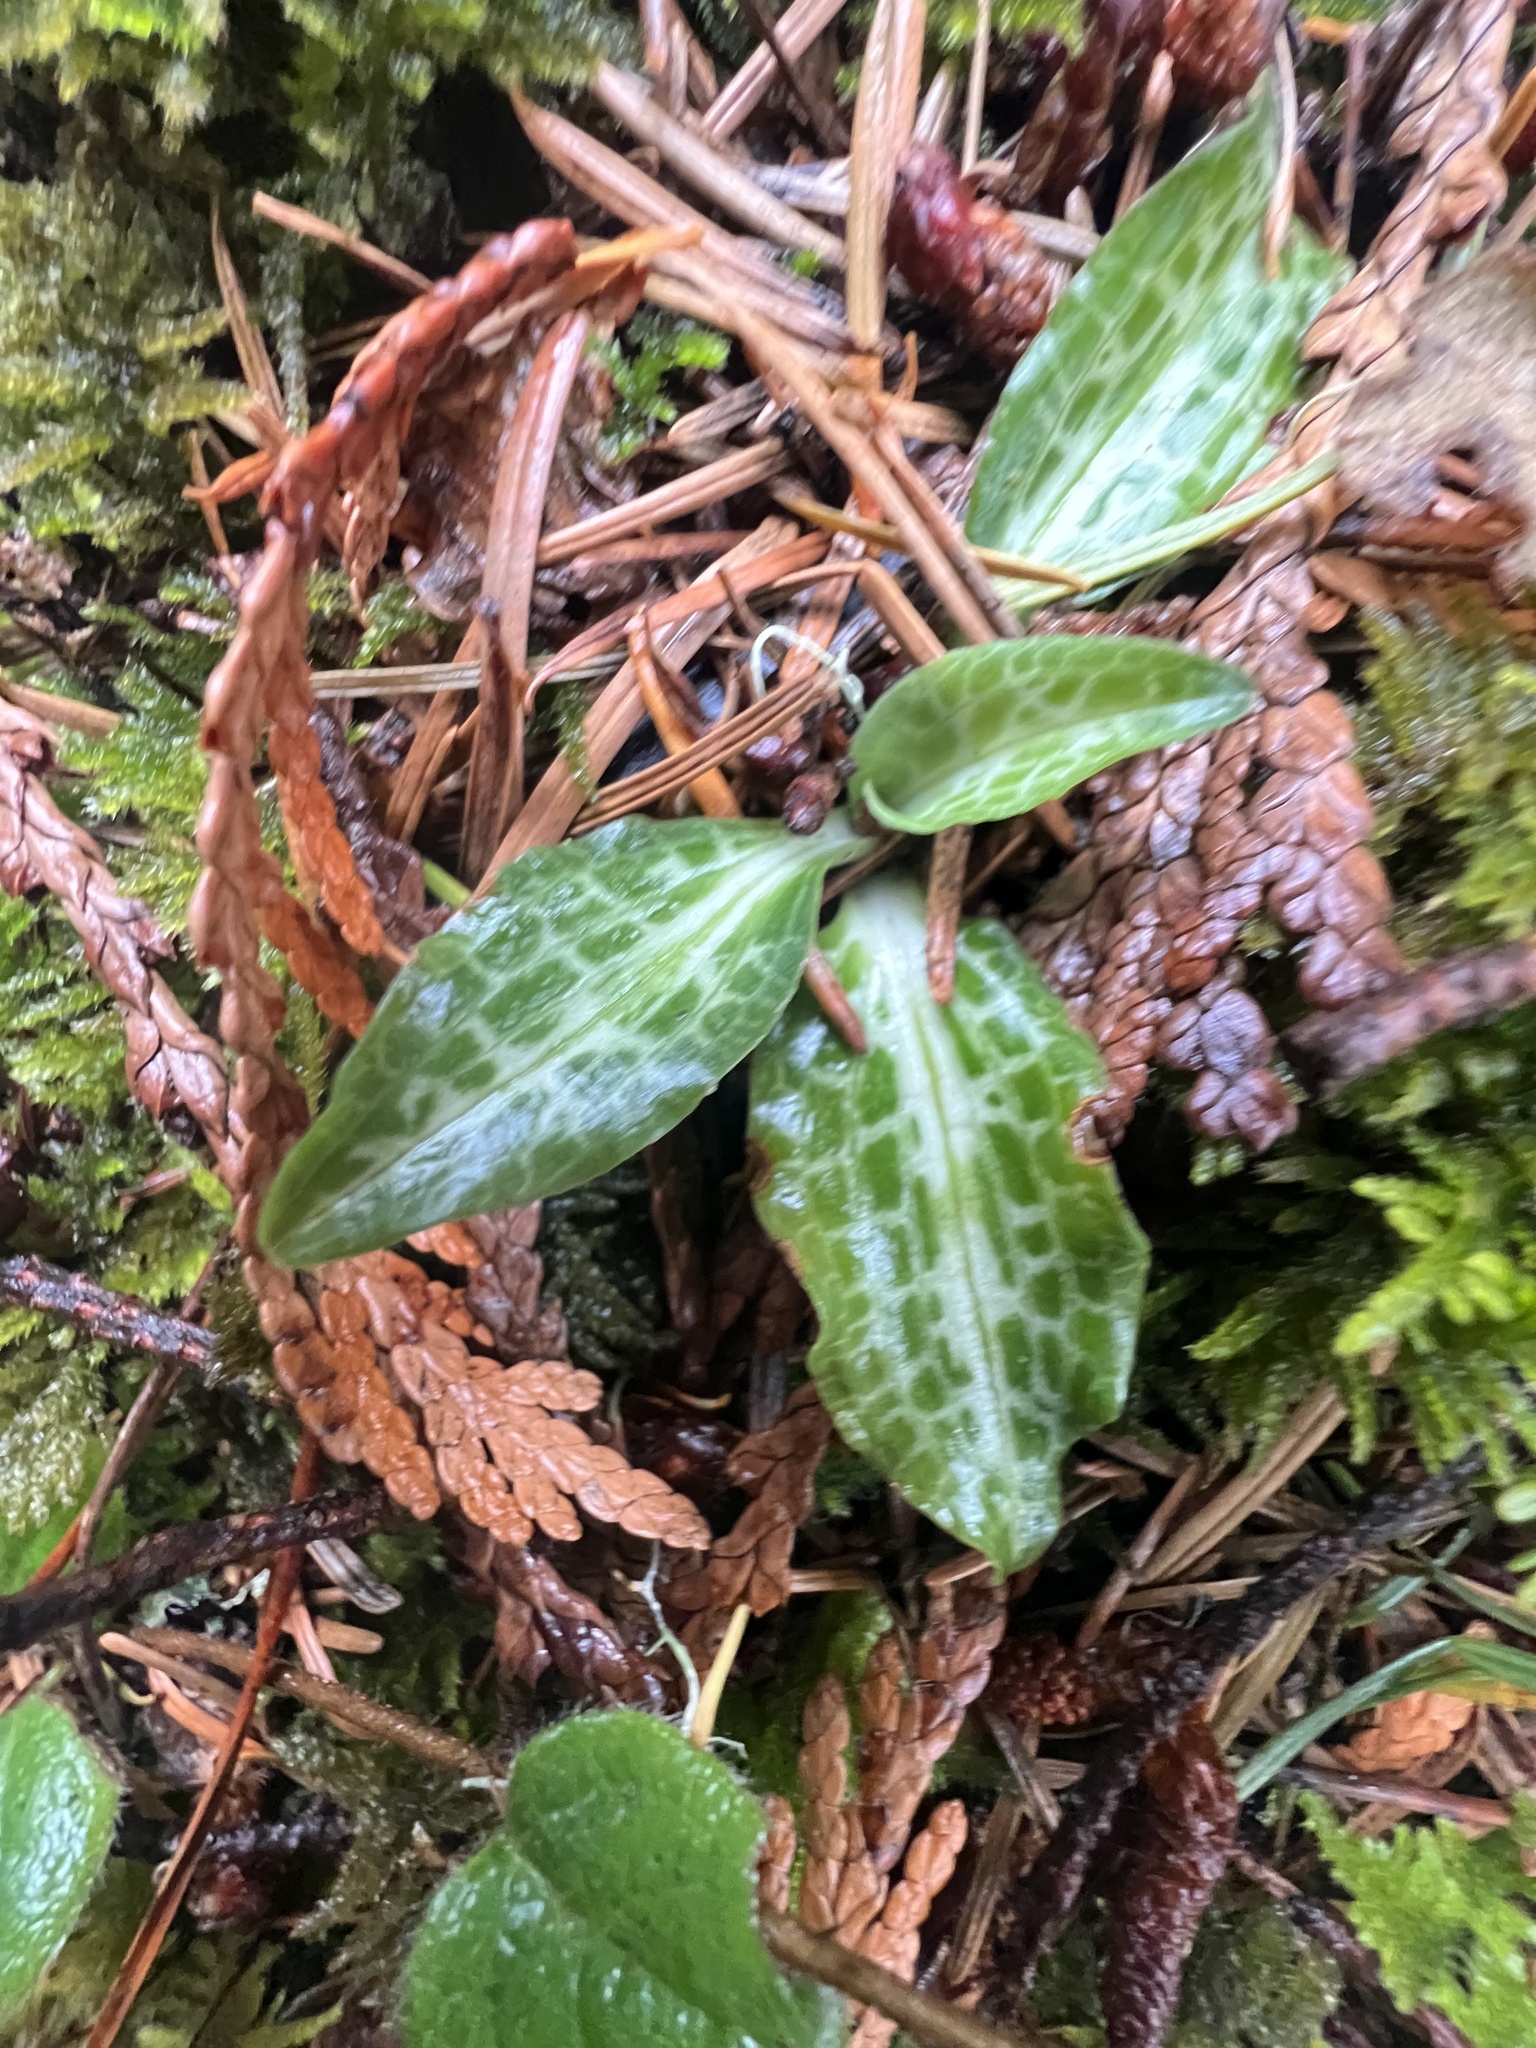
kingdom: Plantae
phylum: Tracheophyta
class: Liliopsida
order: Asparagales
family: Orchidaceae
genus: Goodyera
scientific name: Goodyera oblongifolia
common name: Giant rattlesnake-plantain
